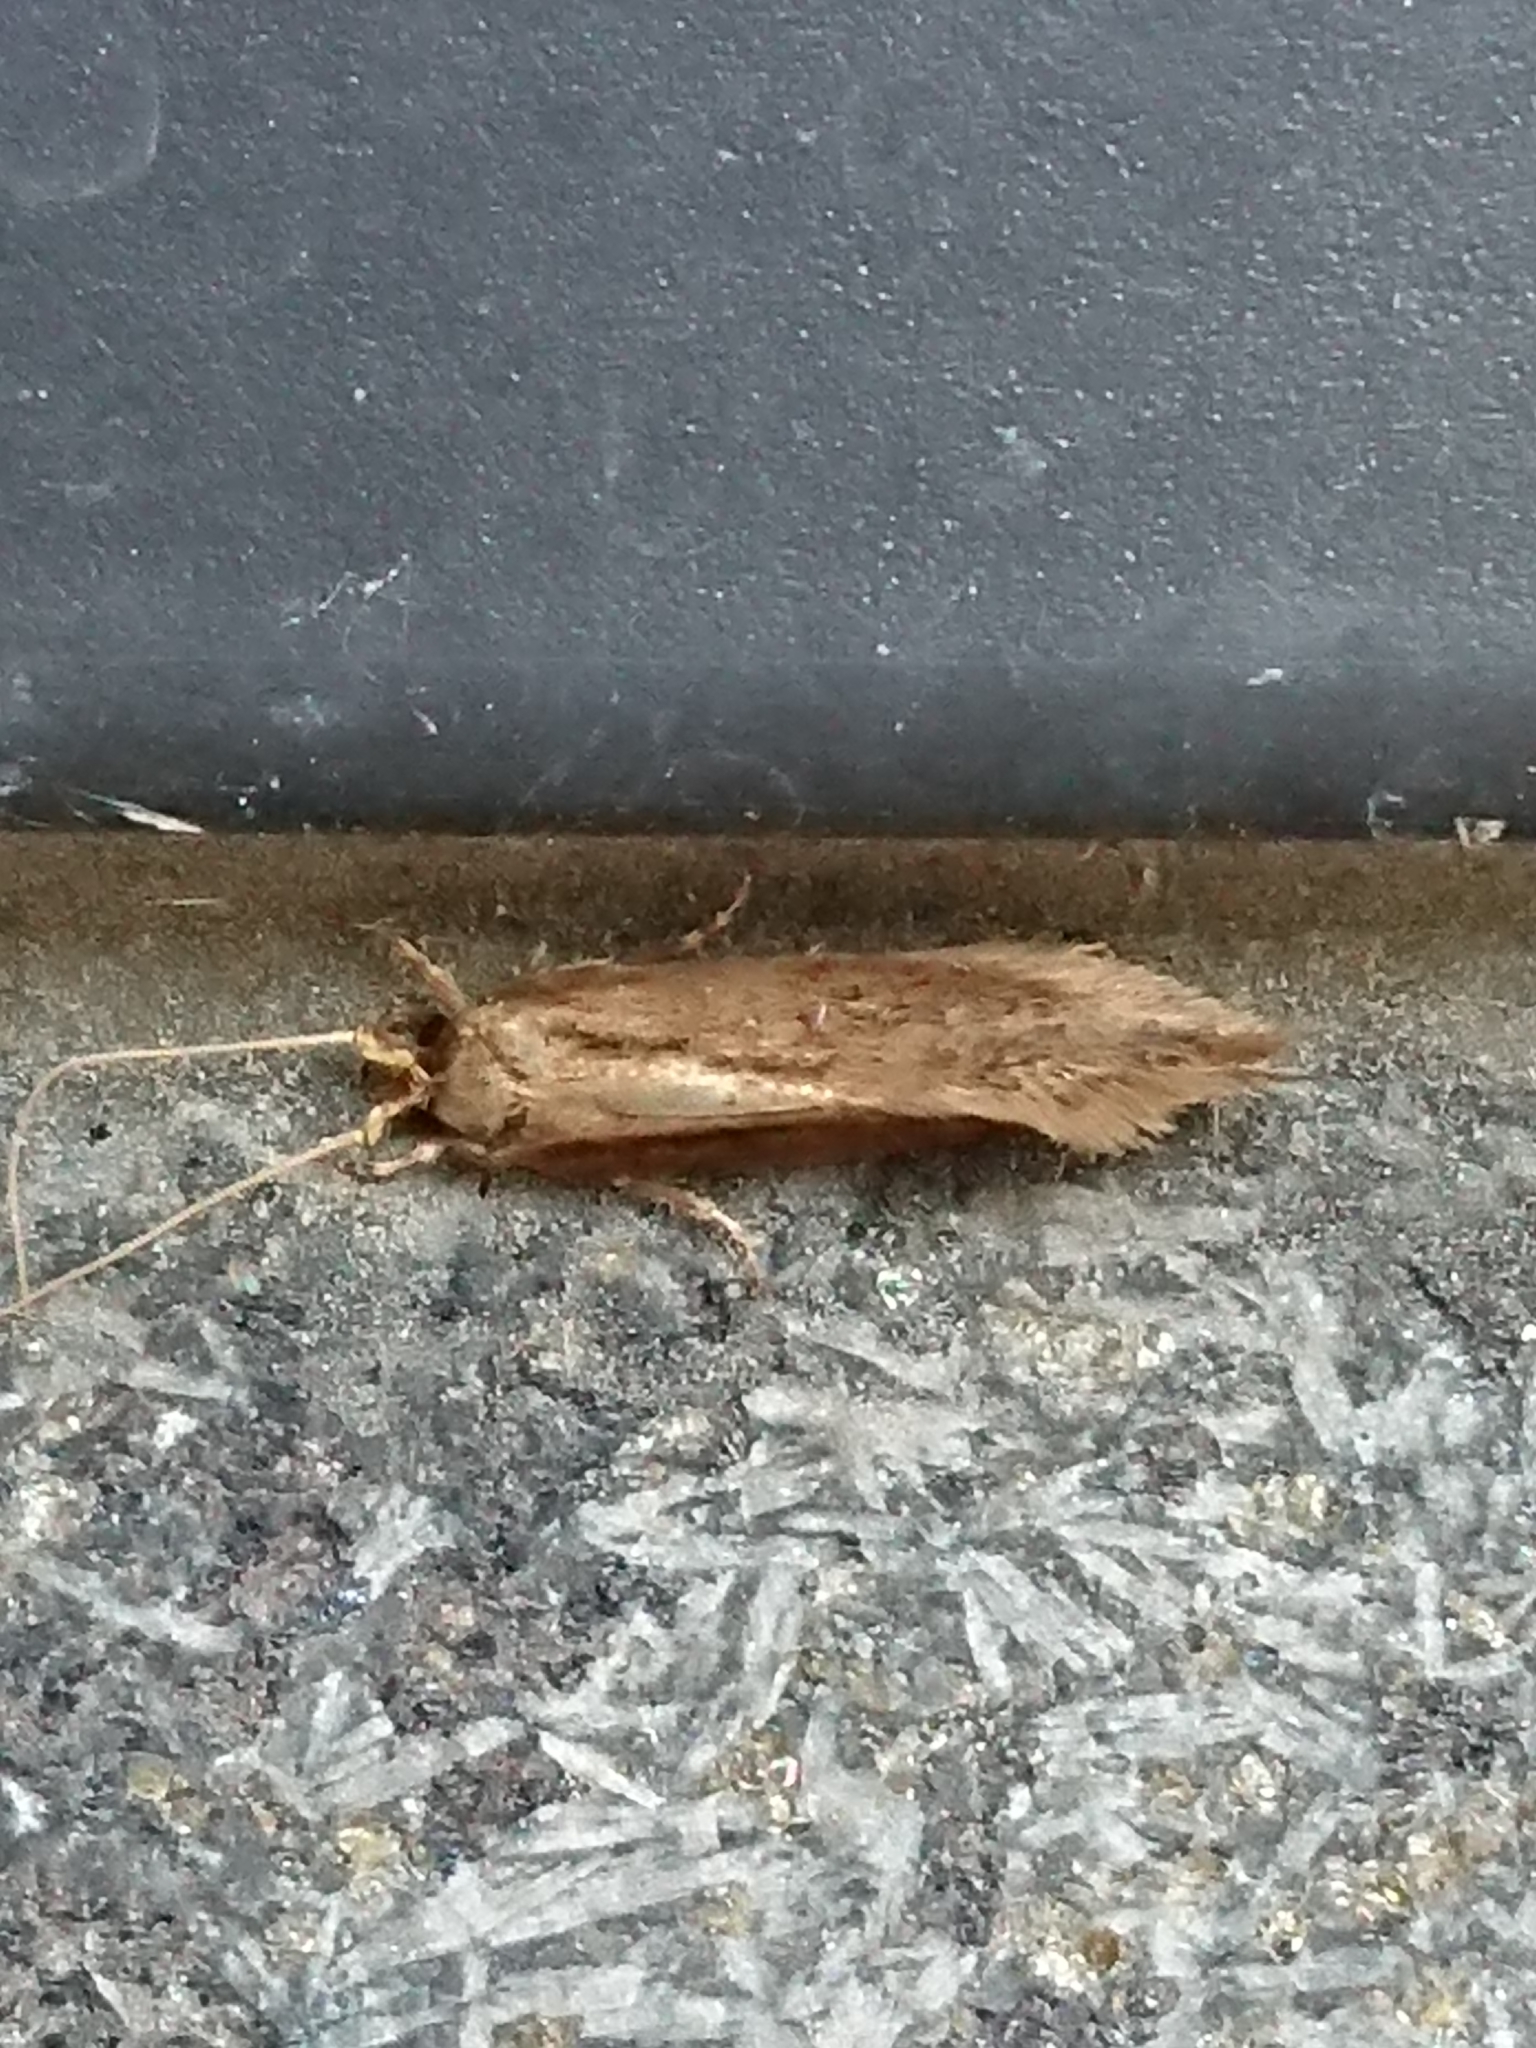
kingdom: Animalia
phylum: Arthropoda
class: Insecta
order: Lepidoptera
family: Tineidae
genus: Opogona
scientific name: Opogona omoscopa
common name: Moth
